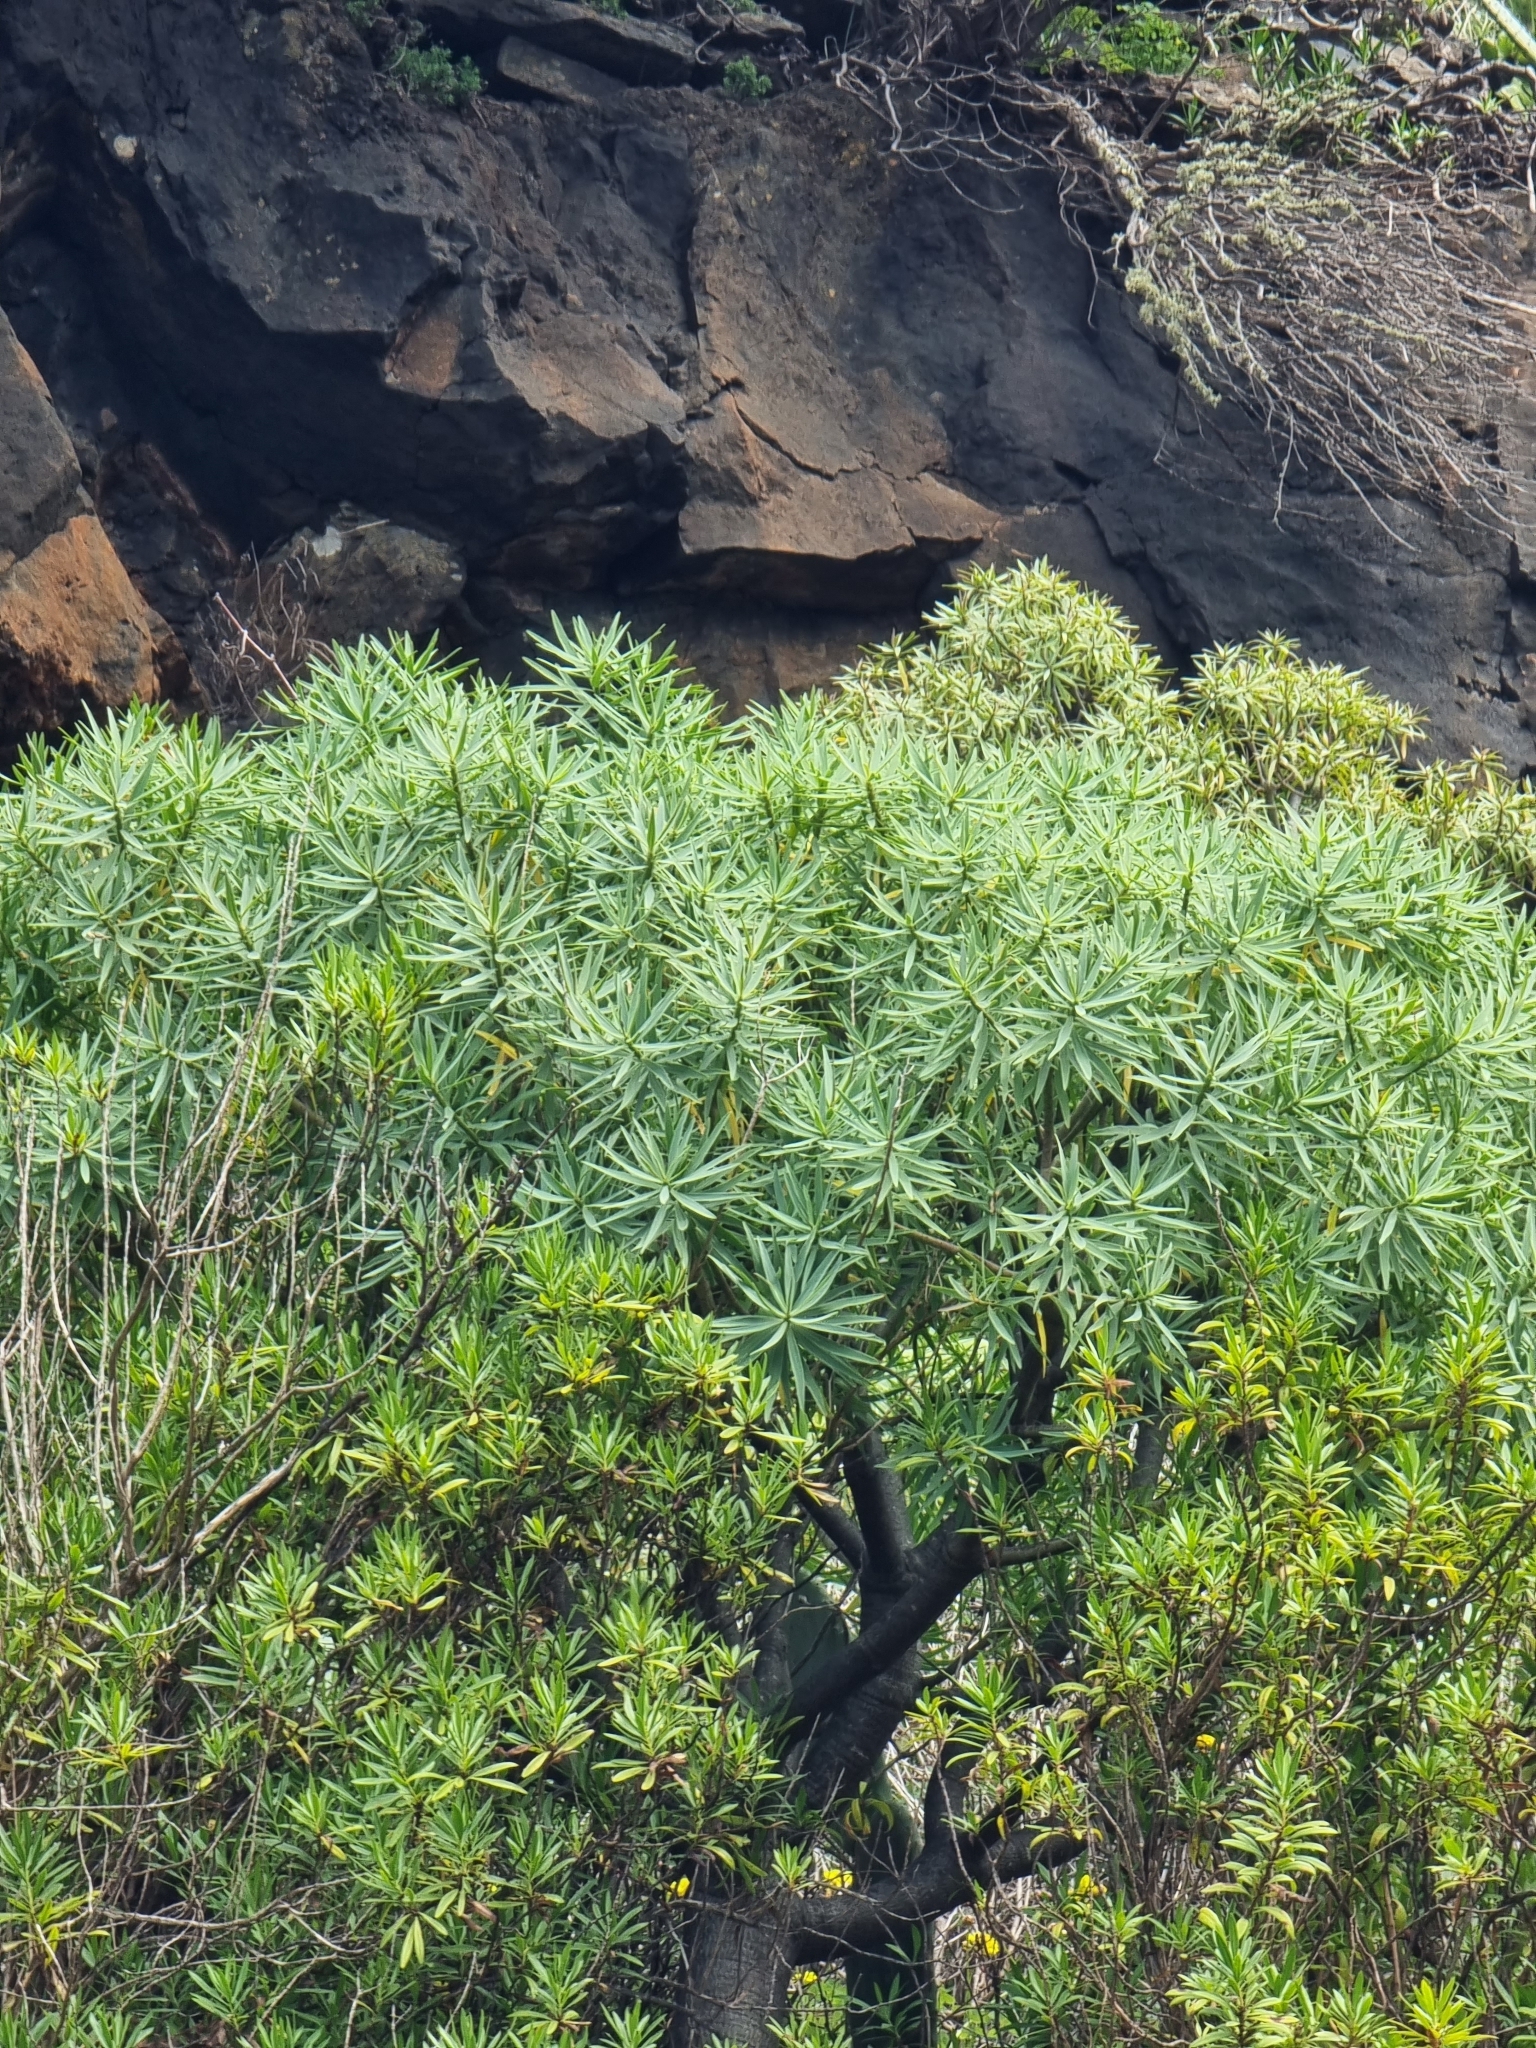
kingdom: Plantae
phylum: Tracheophyta
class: Magnoliopsida
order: Malpighiales
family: Euphorbiaceae
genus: Euphorbia
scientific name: Euphorbia piscatoria
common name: Fish-stunning spurge
